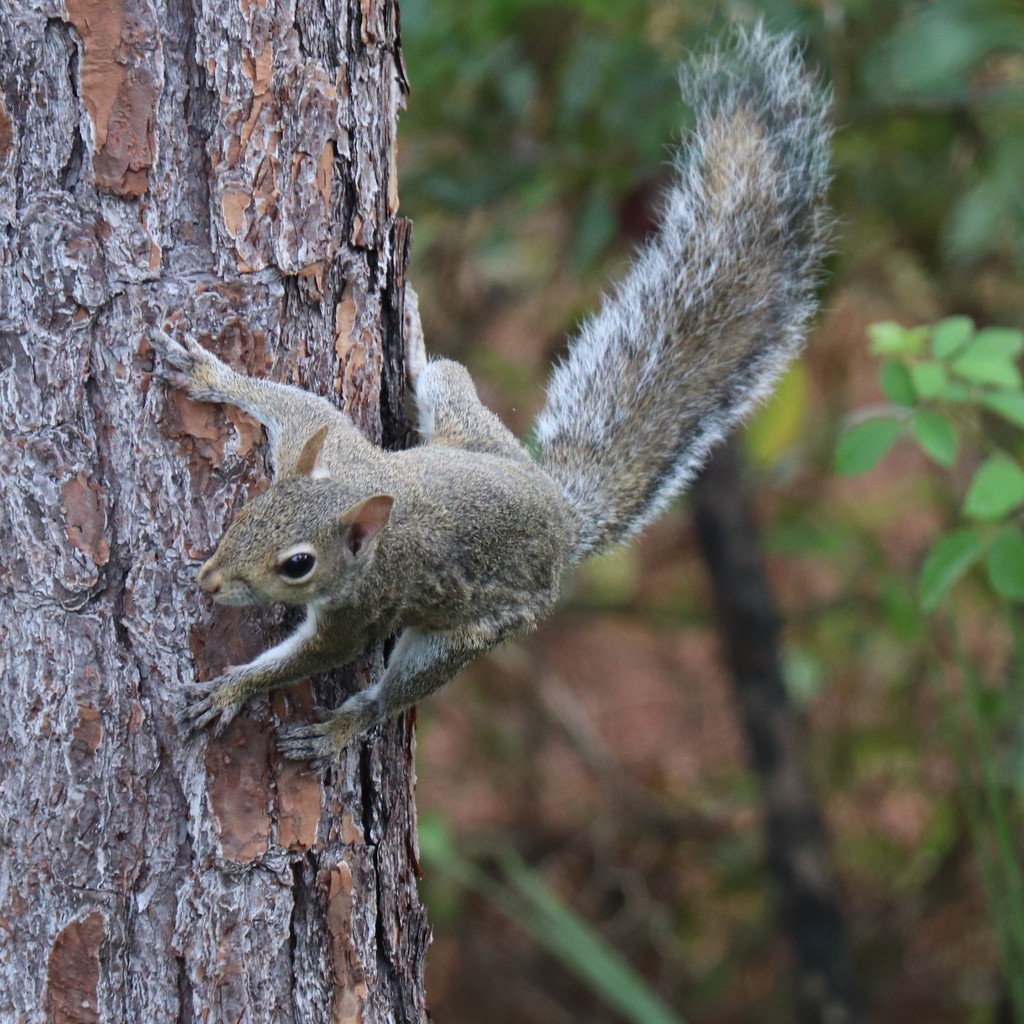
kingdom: Animalia
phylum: Chordata
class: Mammalia
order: Rodentia
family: Sciuridae
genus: Sciurus
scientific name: Sciurus carolinensis
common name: Eastern gray squirrel
